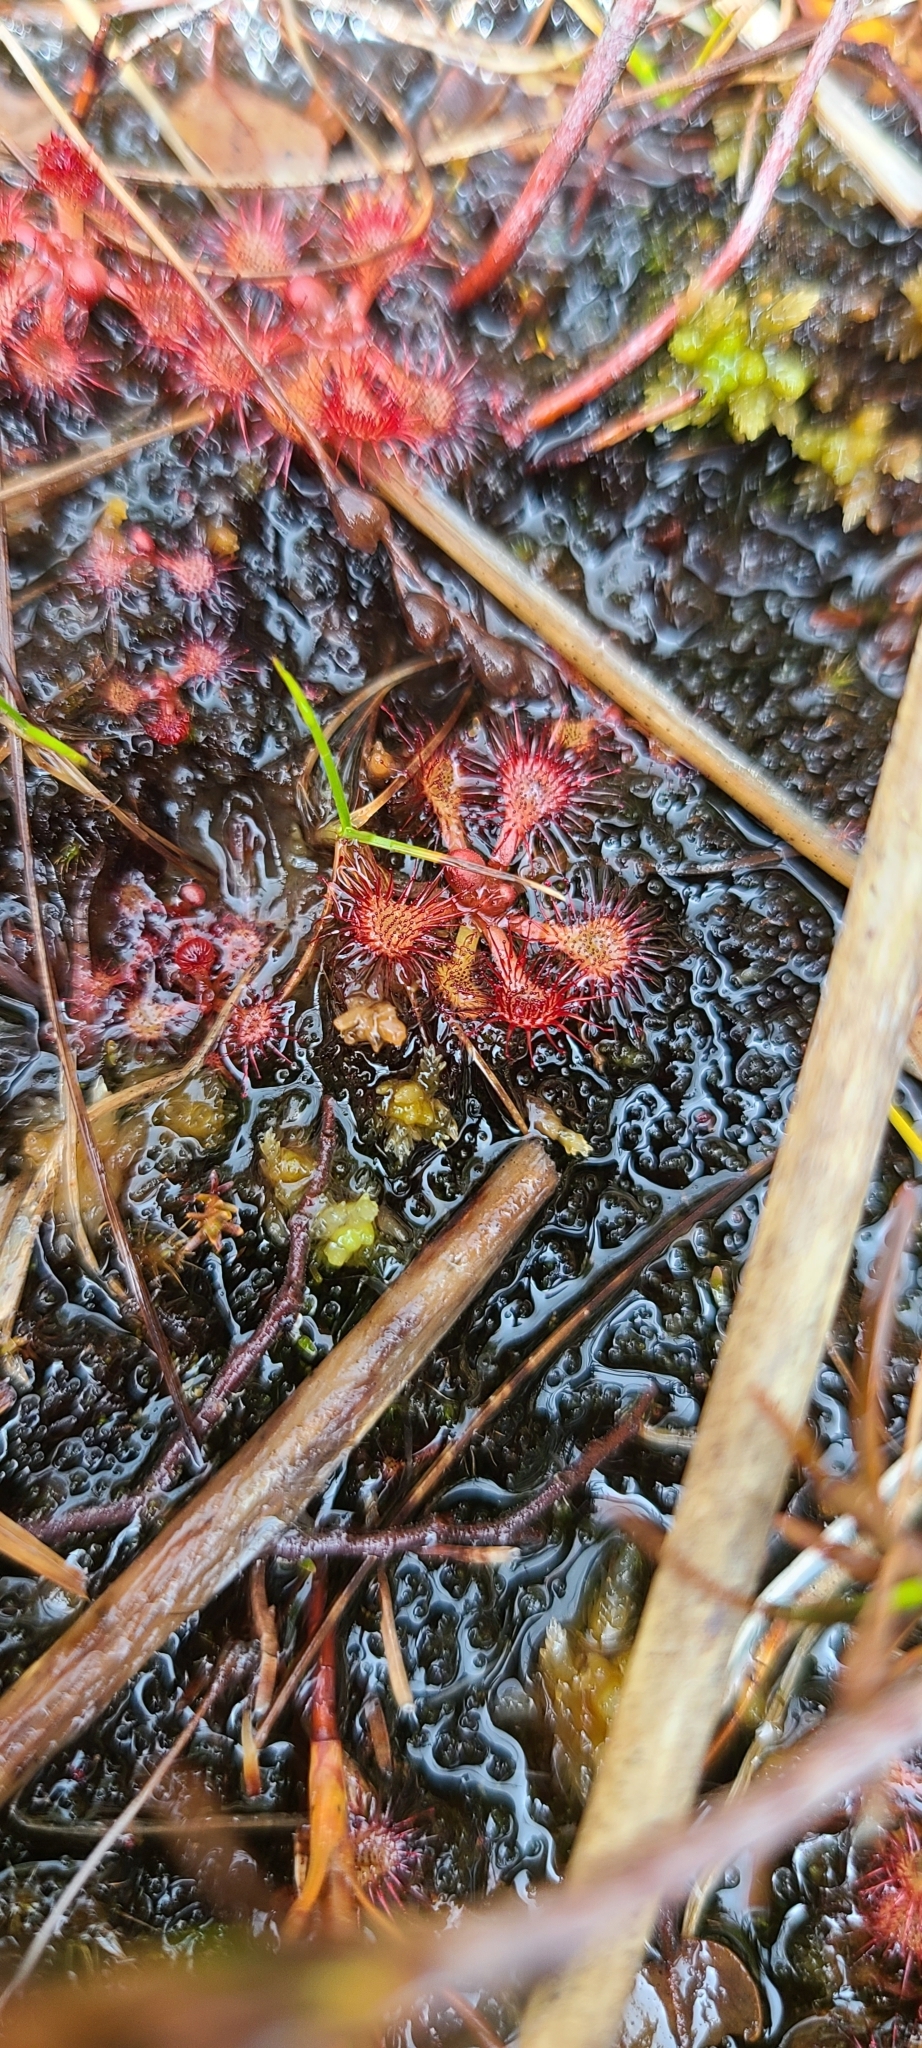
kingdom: Plantae
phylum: Tracheophyta
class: Magnoliopsida
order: Caryophyllales
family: Droseraceae
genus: Drosera
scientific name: Drosera spatulata
